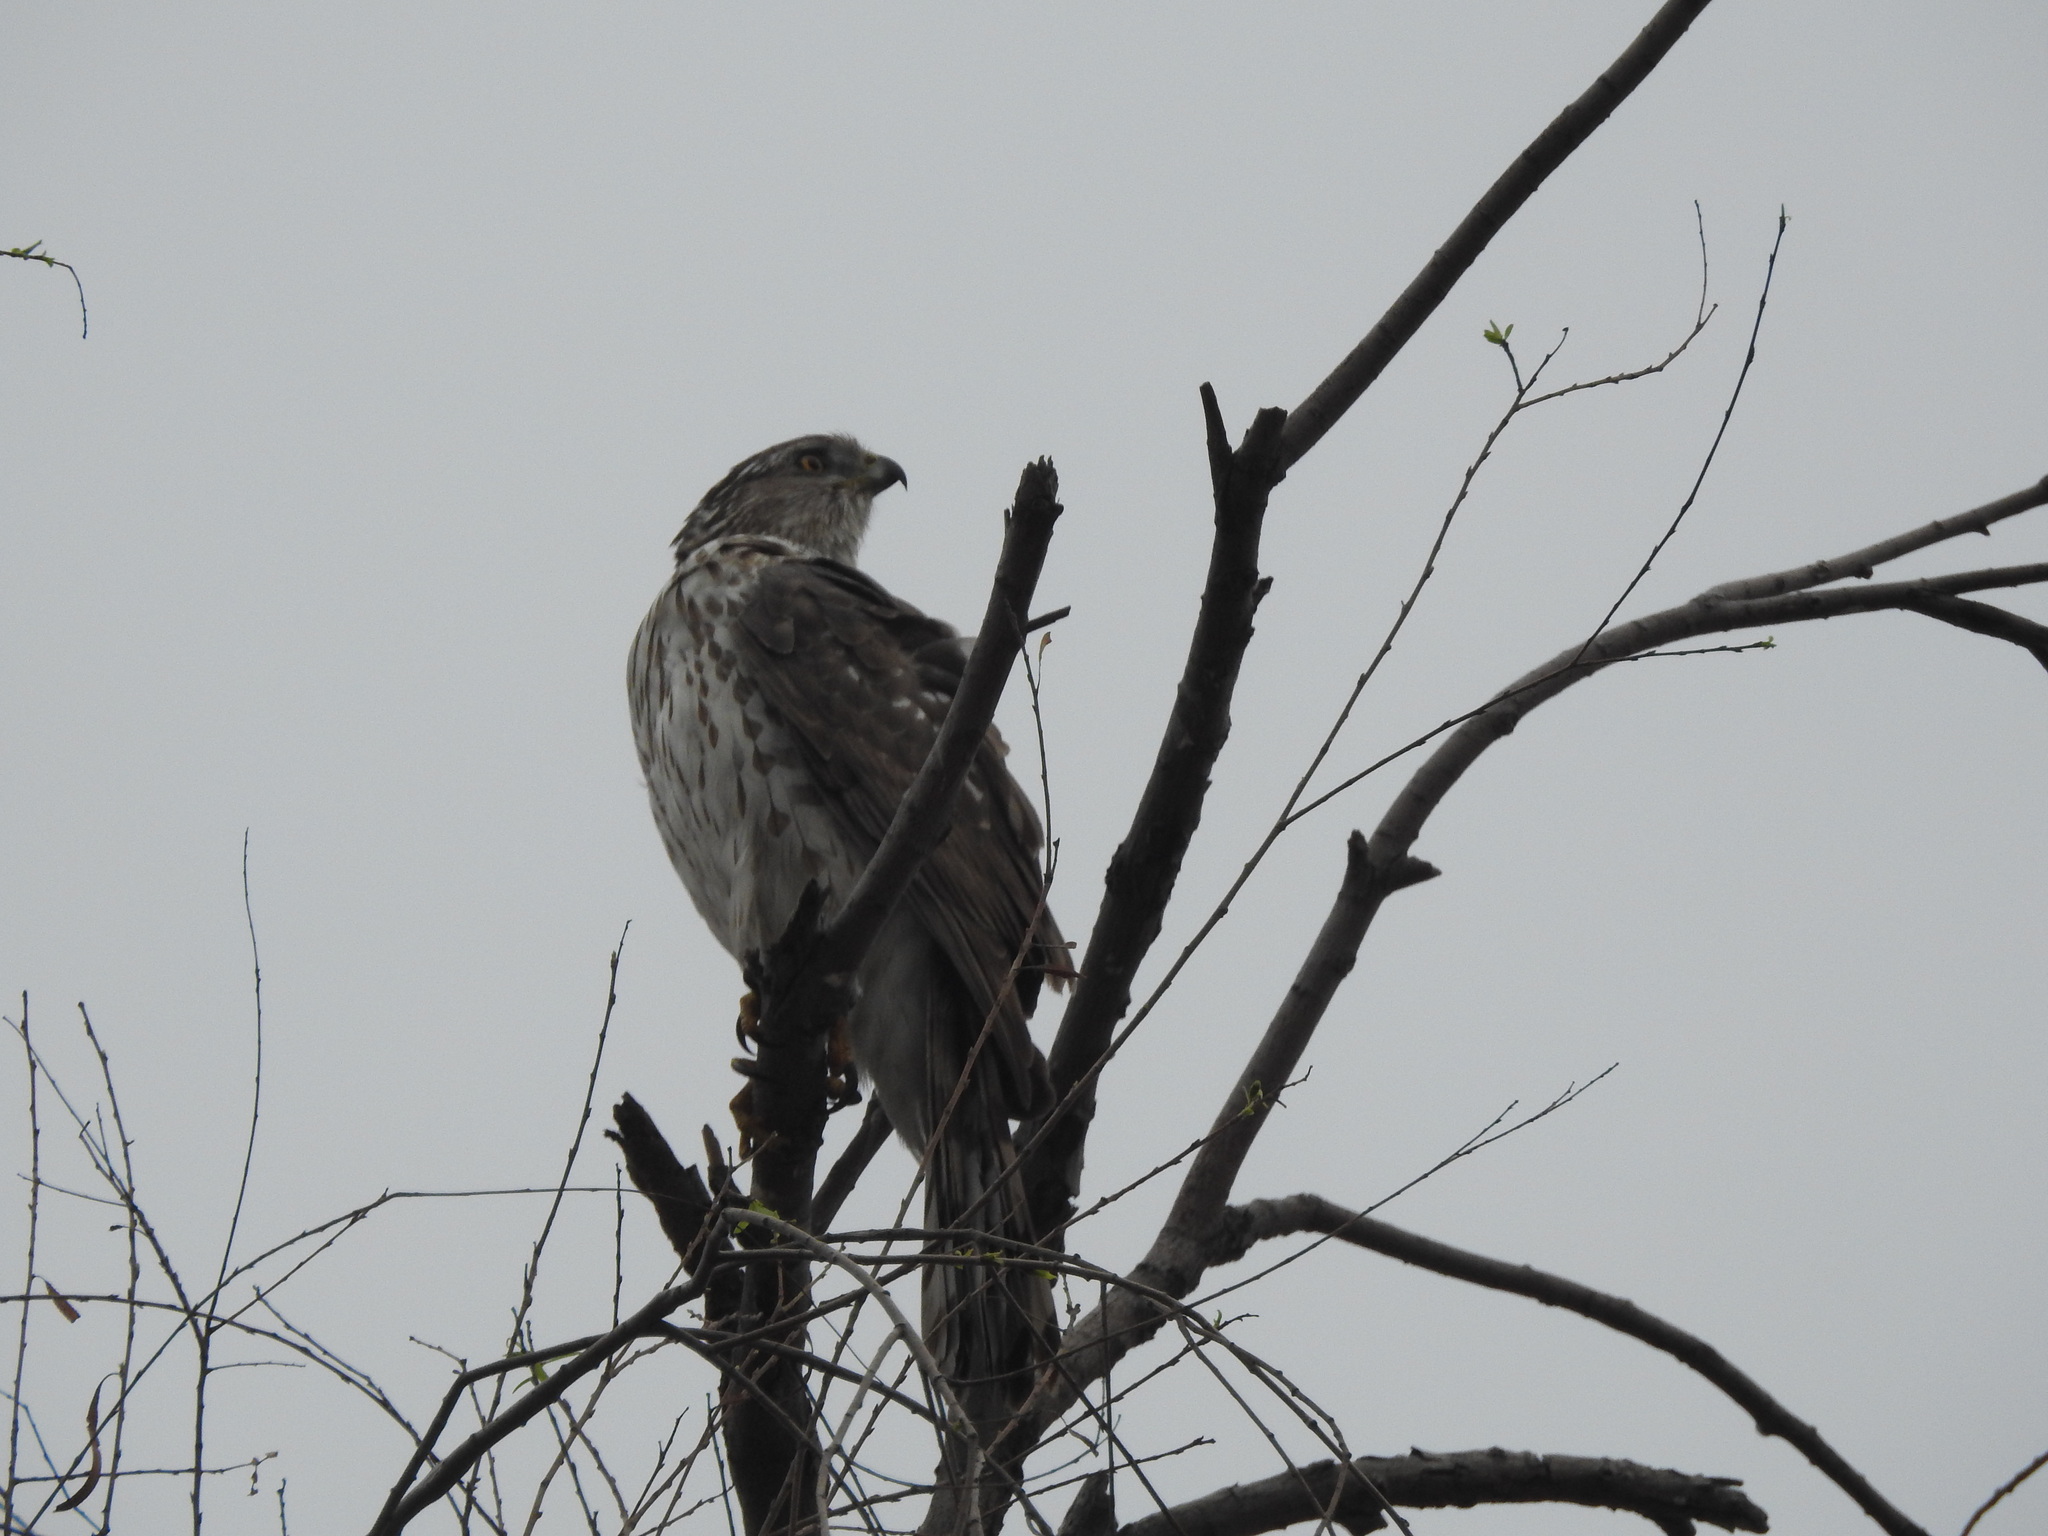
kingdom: Animalia
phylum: Chordata
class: Aves
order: Accipitriformes
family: Accipitridae
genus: Accipiter
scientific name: Accipiter cooperii
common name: Cooper's hawk
